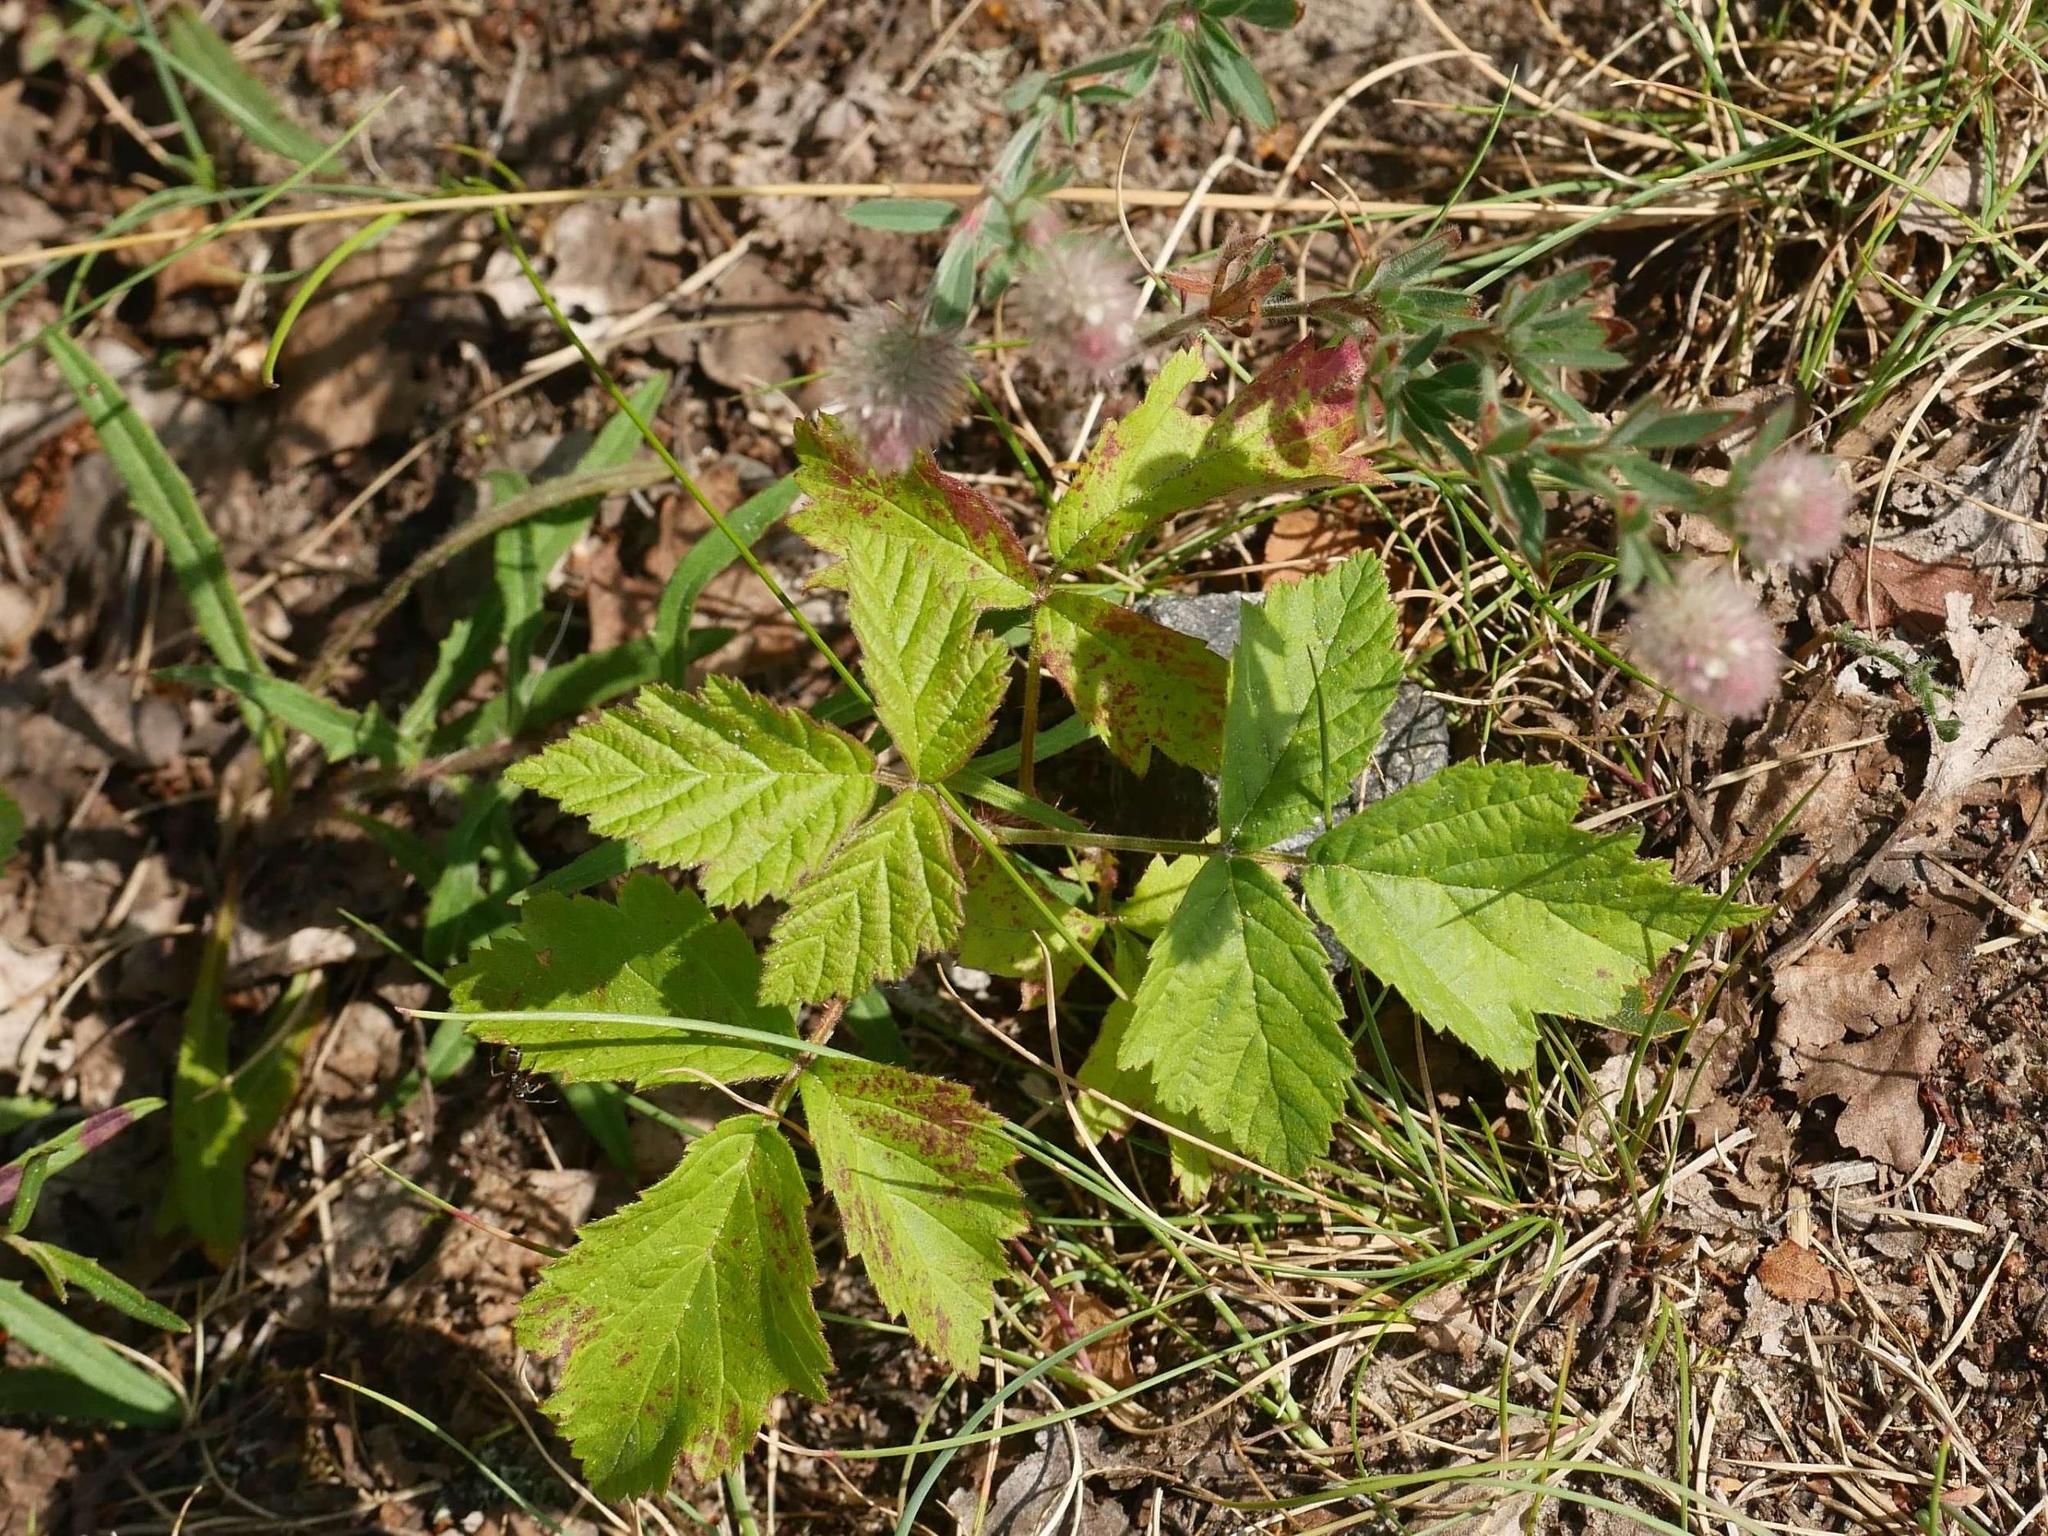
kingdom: Plantae
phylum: Tracheophyta
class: Magnoliopsida
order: Rosales
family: Rosaceae
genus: Rubus
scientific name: Rubus caesius
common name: Dewberry
